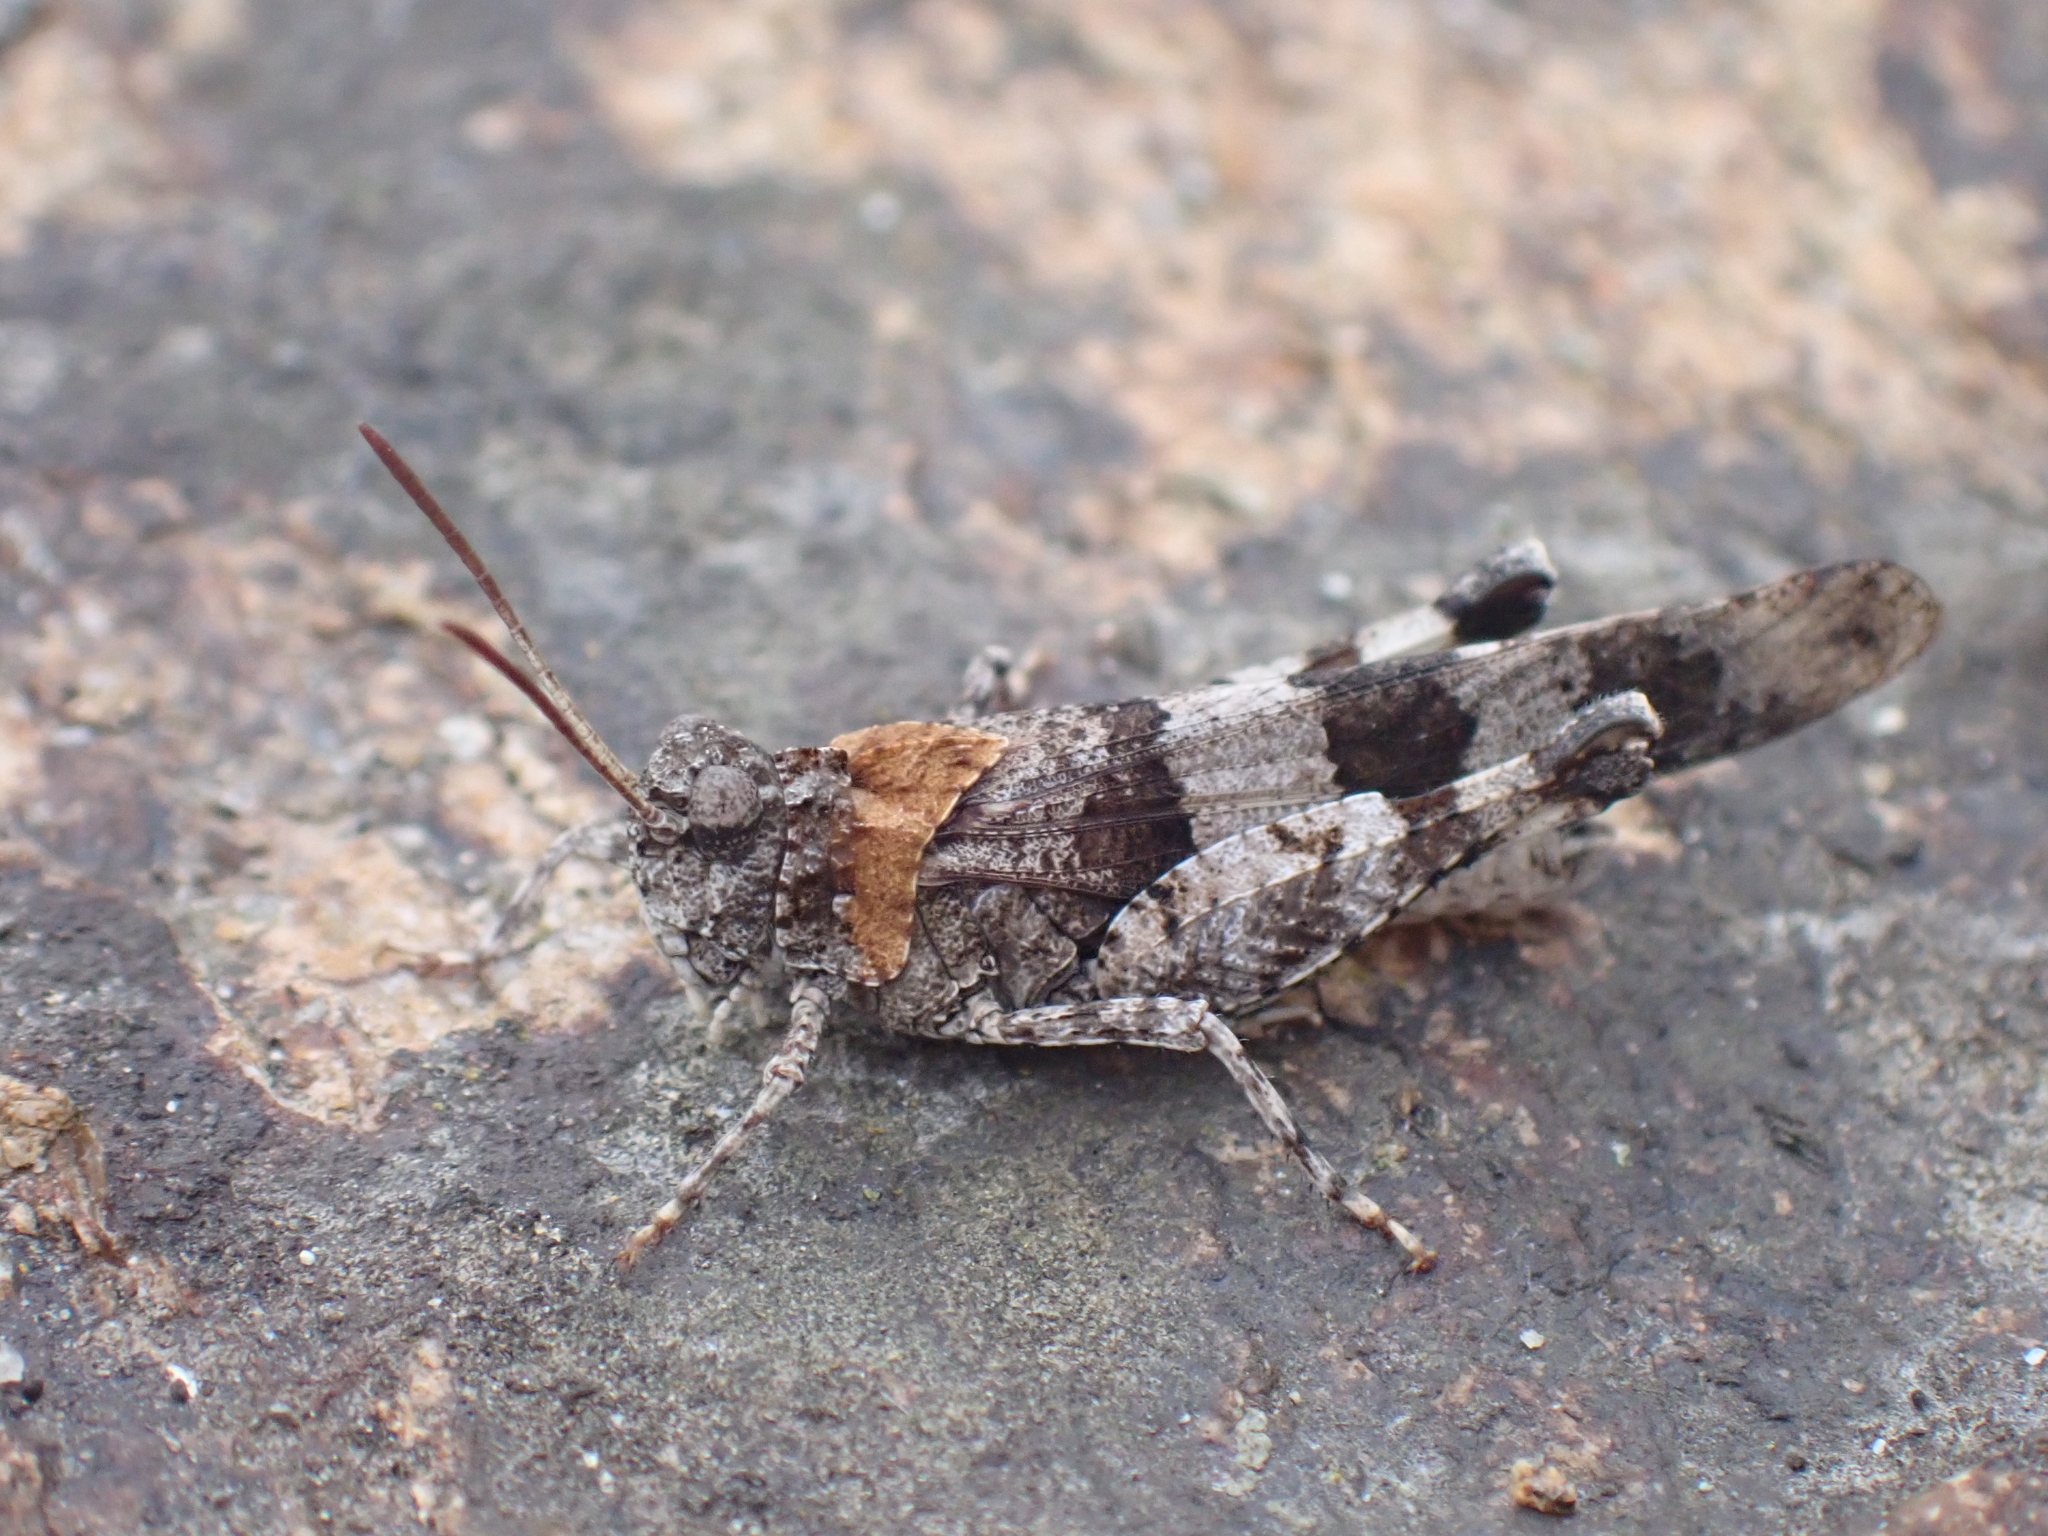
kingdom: Animalia
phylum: Arthropoda
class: Insecta
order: Orthoptera
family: Acrididae
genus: Oedipoda
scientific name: Oedipoda caerulescens
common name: Blue-winged grasshopper
